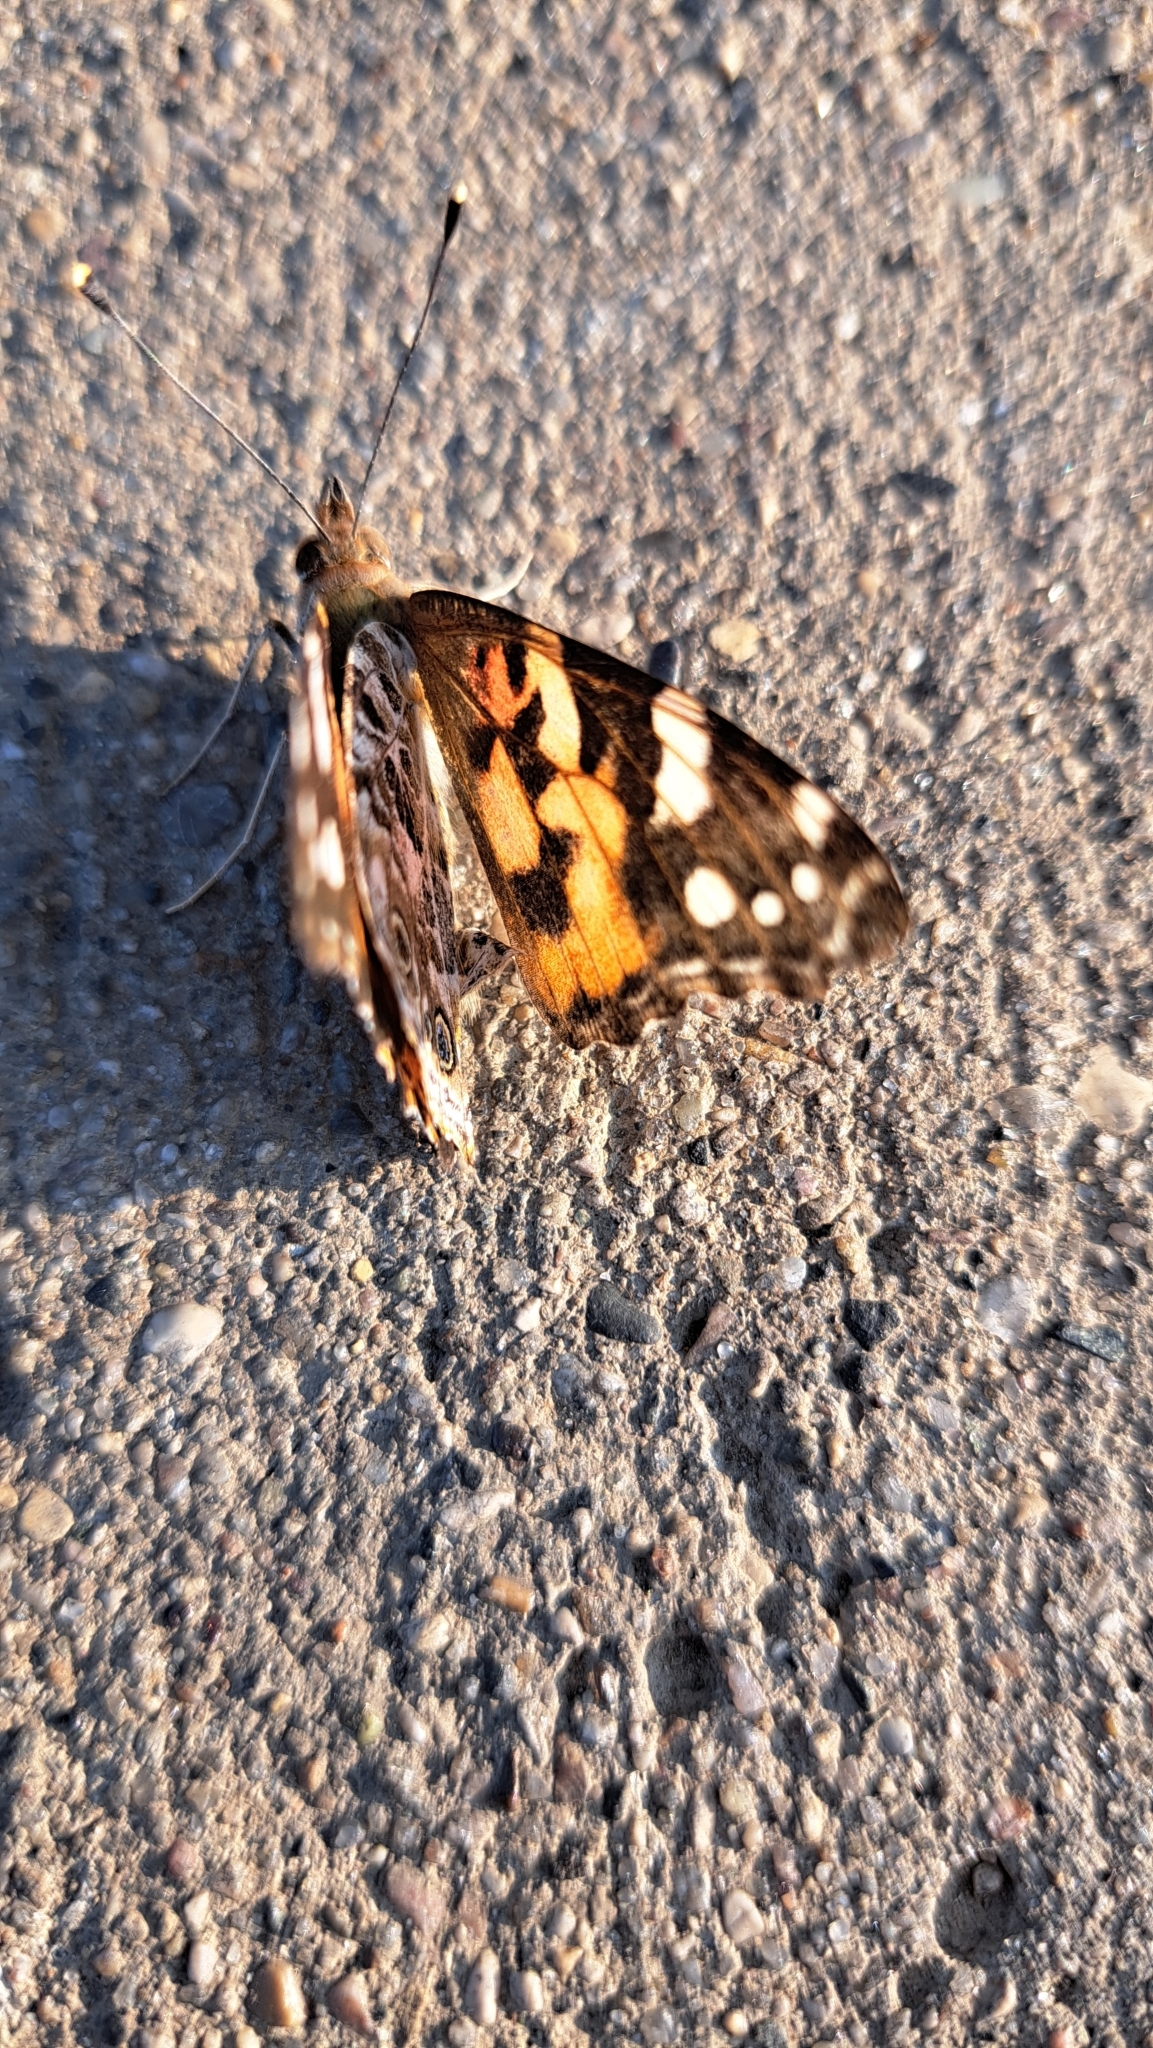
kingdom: Animalia
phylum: Arthropoda
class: Insecta
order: Lepidoptera
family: Nymphalidae
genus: Vanessa
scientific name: Vanessa cardui
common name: Painted lady
